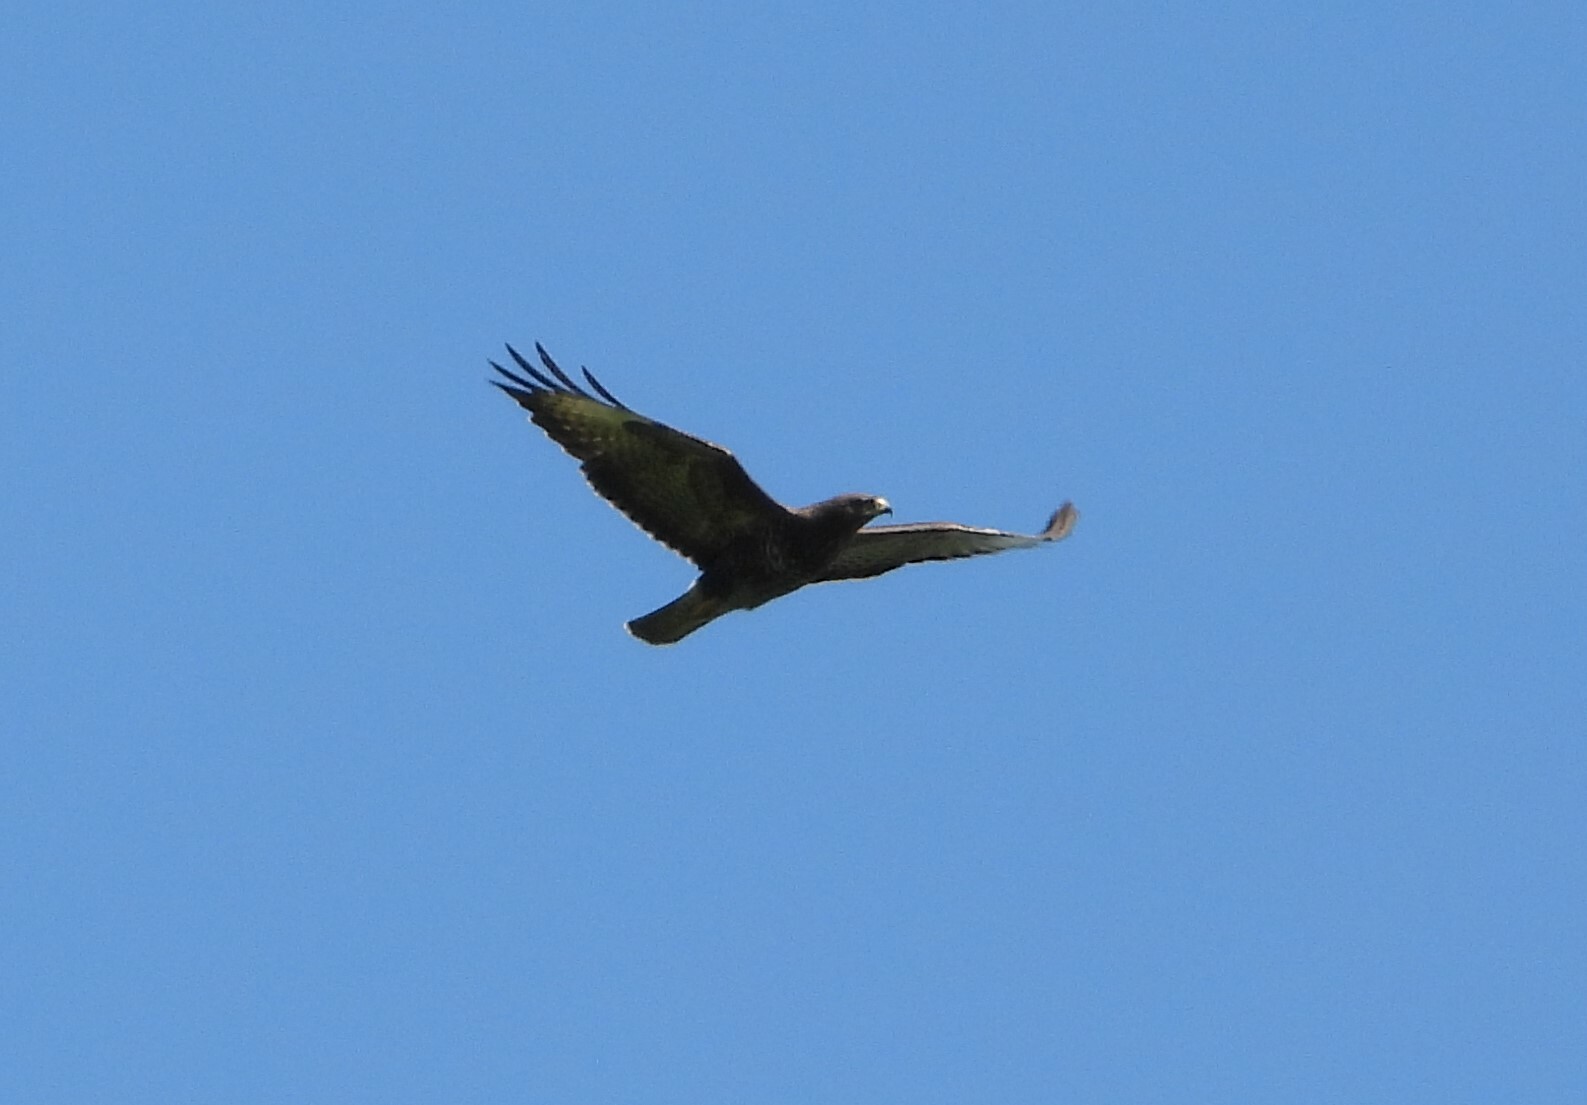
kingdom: Animalia
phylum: Chordata
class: Aves
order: Accipitriformes
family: Accipitridae
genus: Buteo
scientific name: Buteo buteo
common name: Common buzzard
